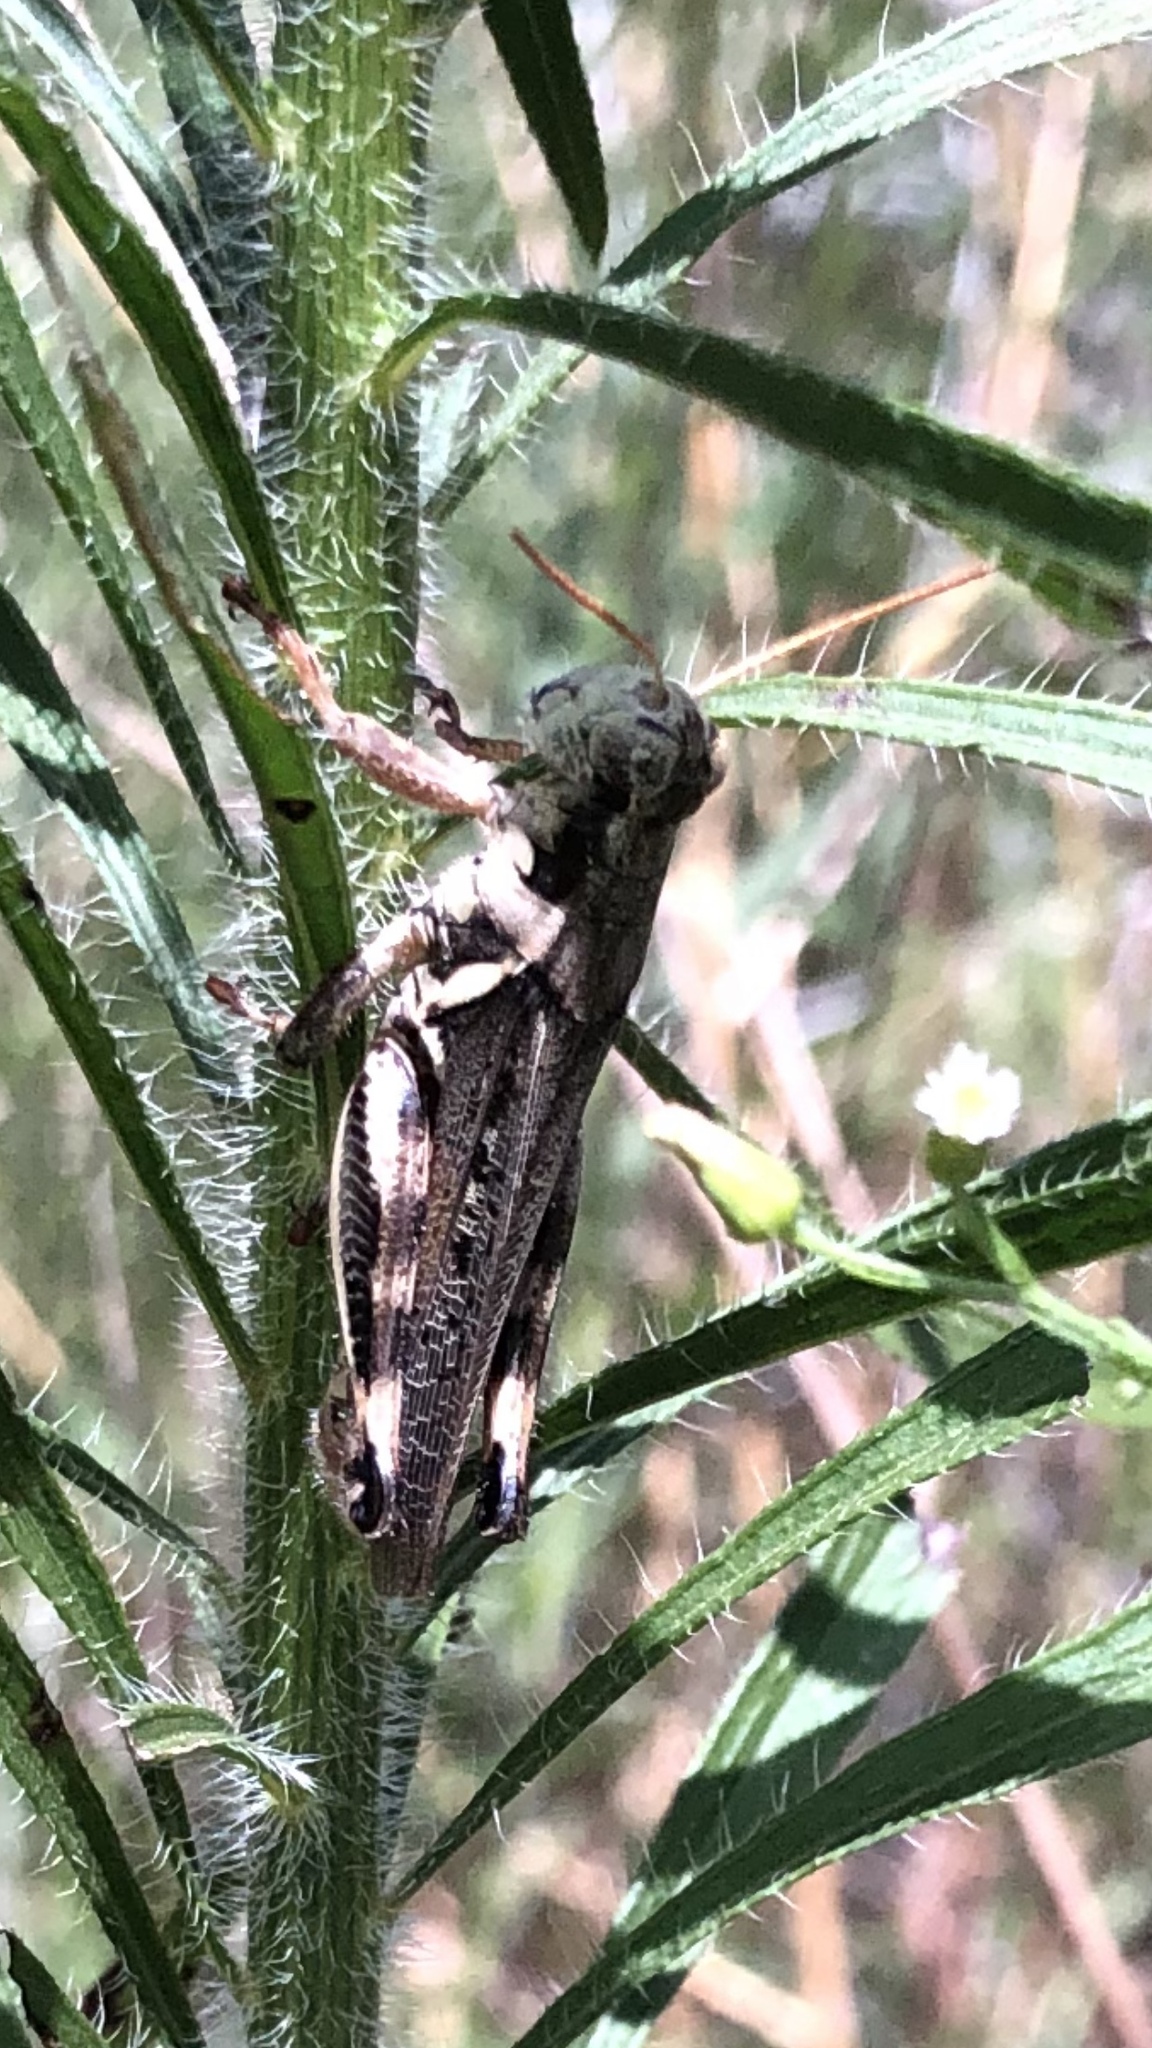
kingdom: Animalia
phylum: Arthropoda
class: Insecta
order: Orthoptera
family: Acrididae
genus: Melanoplus
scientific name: Melanoplus keeleri
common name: Keeler grasshopper
